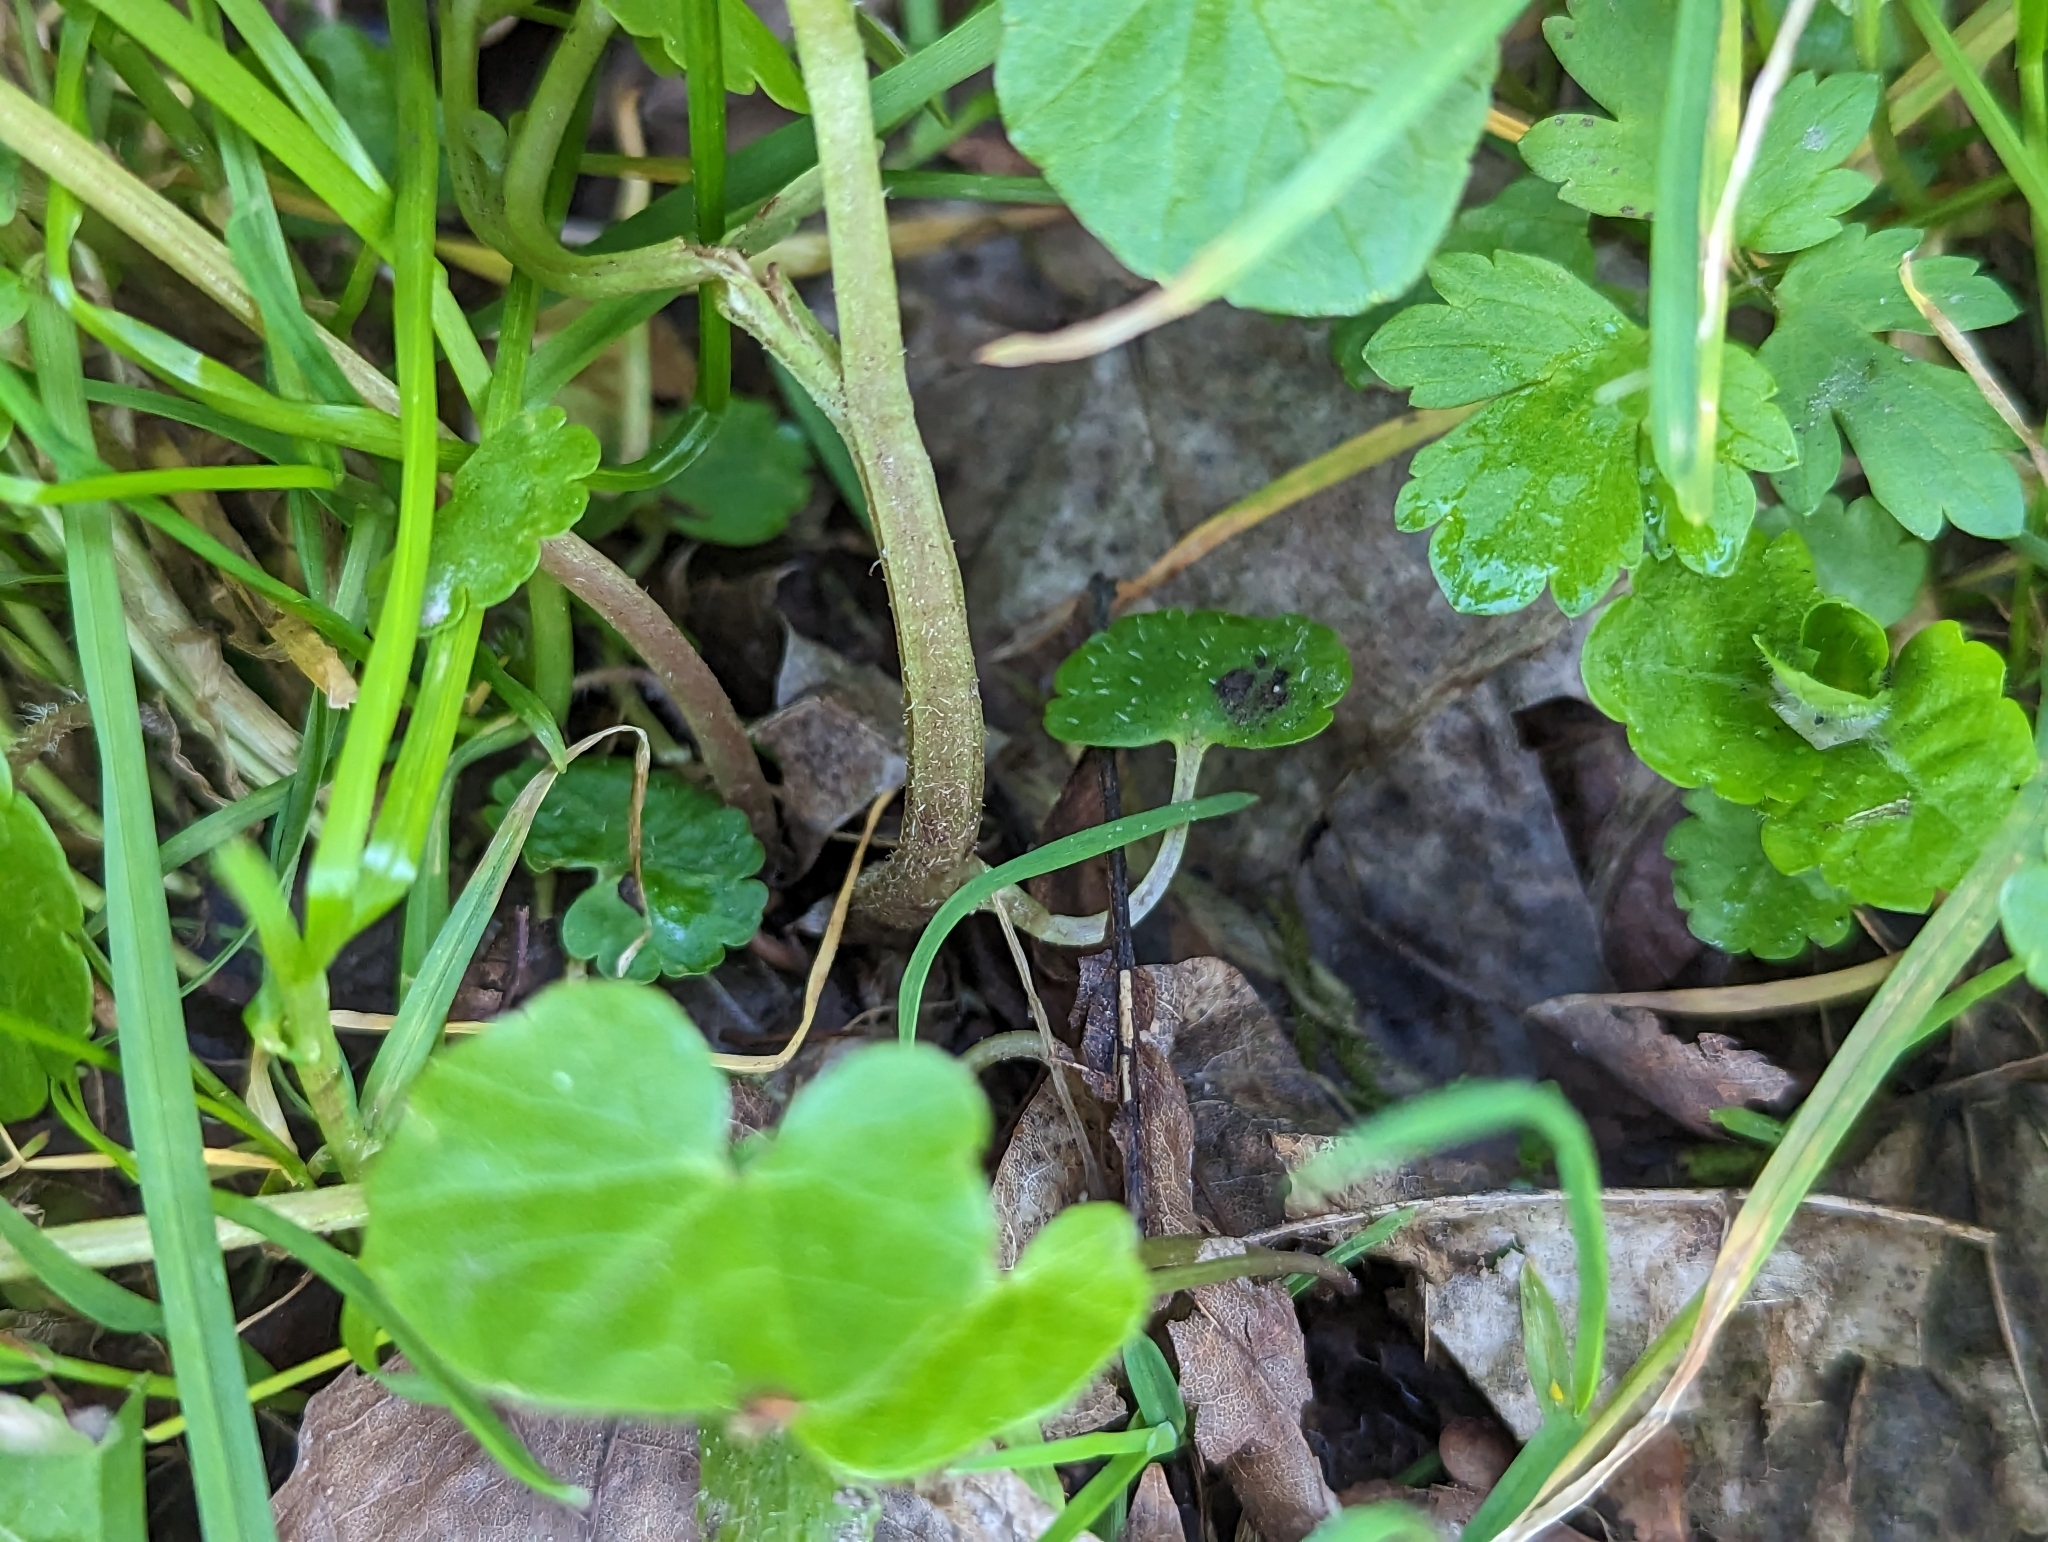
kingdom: Plantae
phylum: Tracheophyta
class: Magnoliopsida
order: Saxifragales
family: Saxifragaceae
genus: Chrysosplenium
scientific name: Chrysosplenium alternifolium
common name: Alternate-leaved golden-saxifrage
